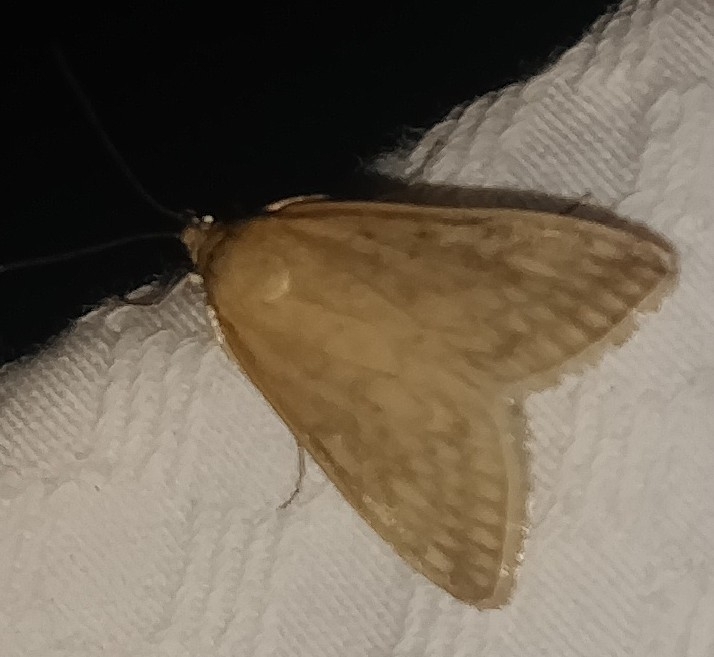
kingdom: Animalia
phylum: Arthropoda
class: Insecta
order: Lepidoptera
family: Crambidae
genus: Sitochroa
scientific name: Sitochroa chortalis
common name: Dimorphic sitochroa moth
